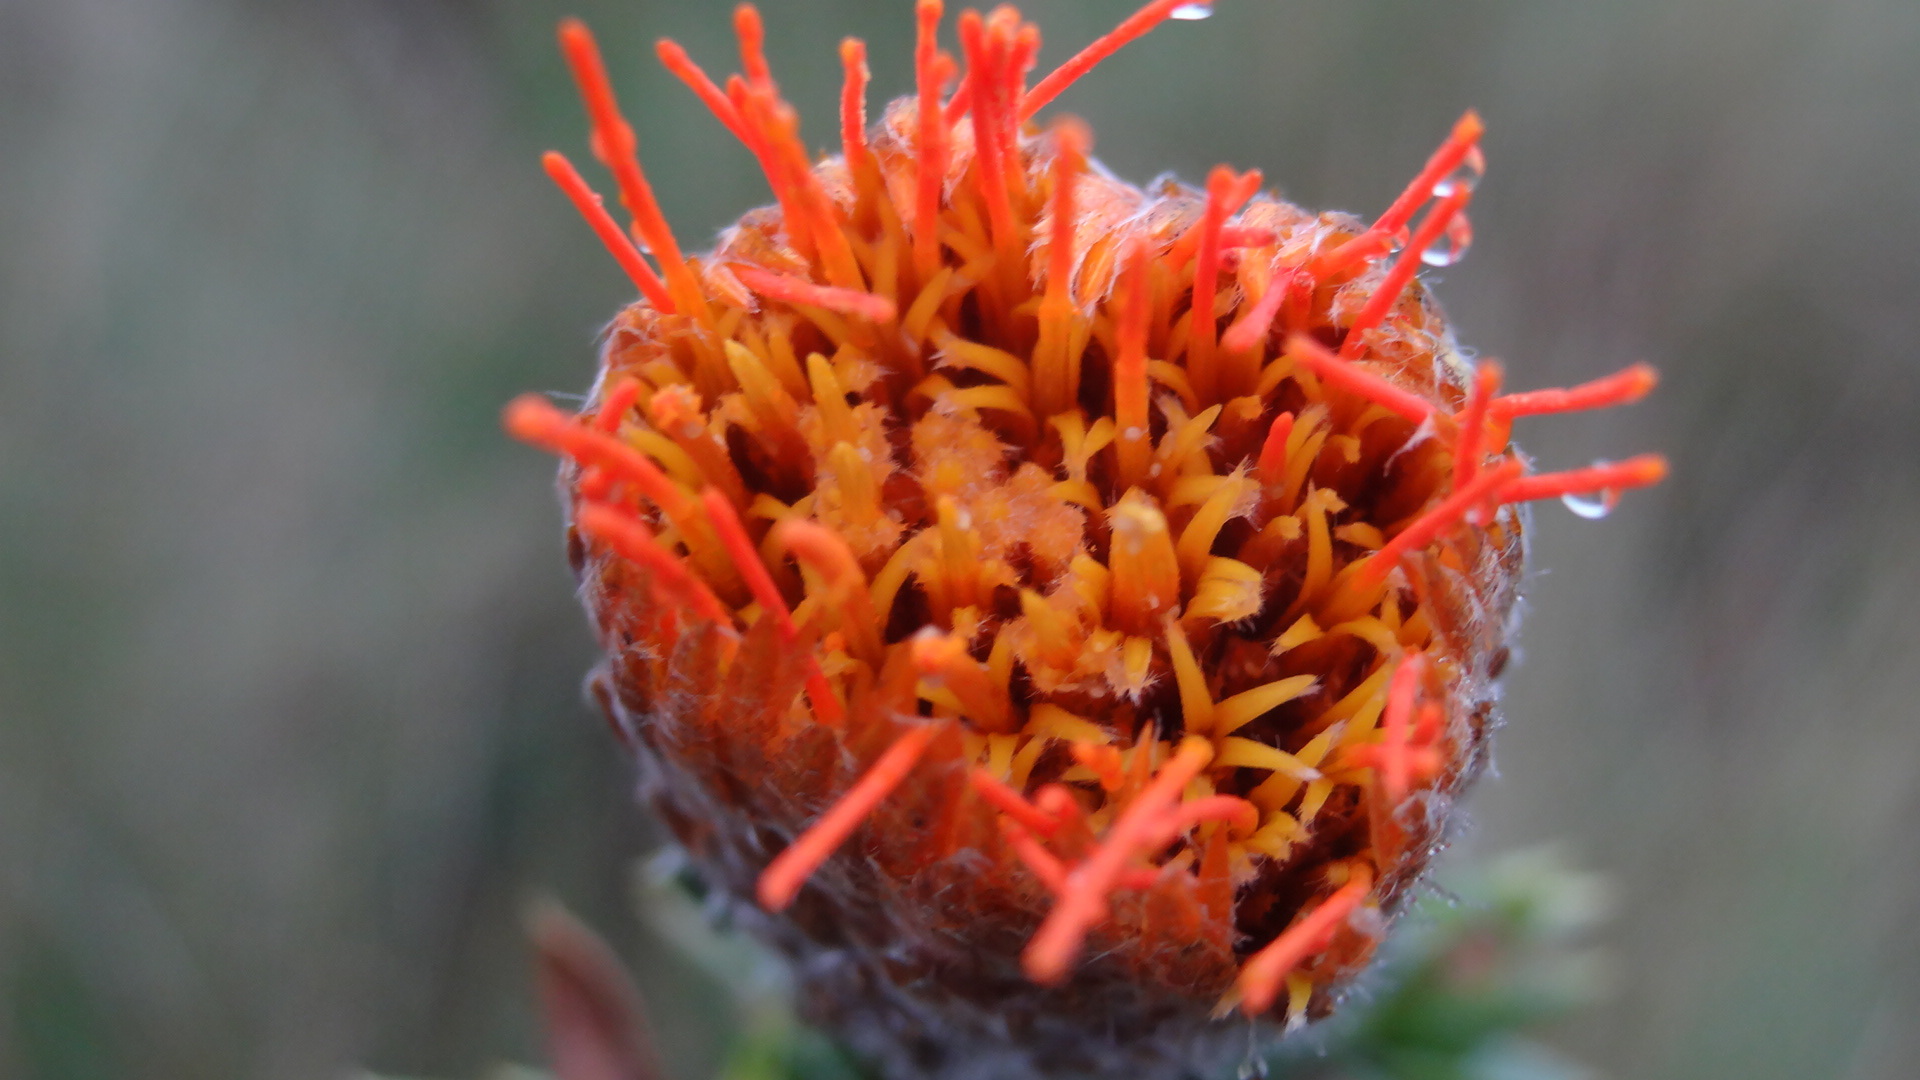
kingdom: Plantae
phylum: Tracheophyta
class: Magnoliopsida
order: Asterales
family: Asteraceae
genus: Chuquiraga
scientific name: Chuquiraga jussieui
